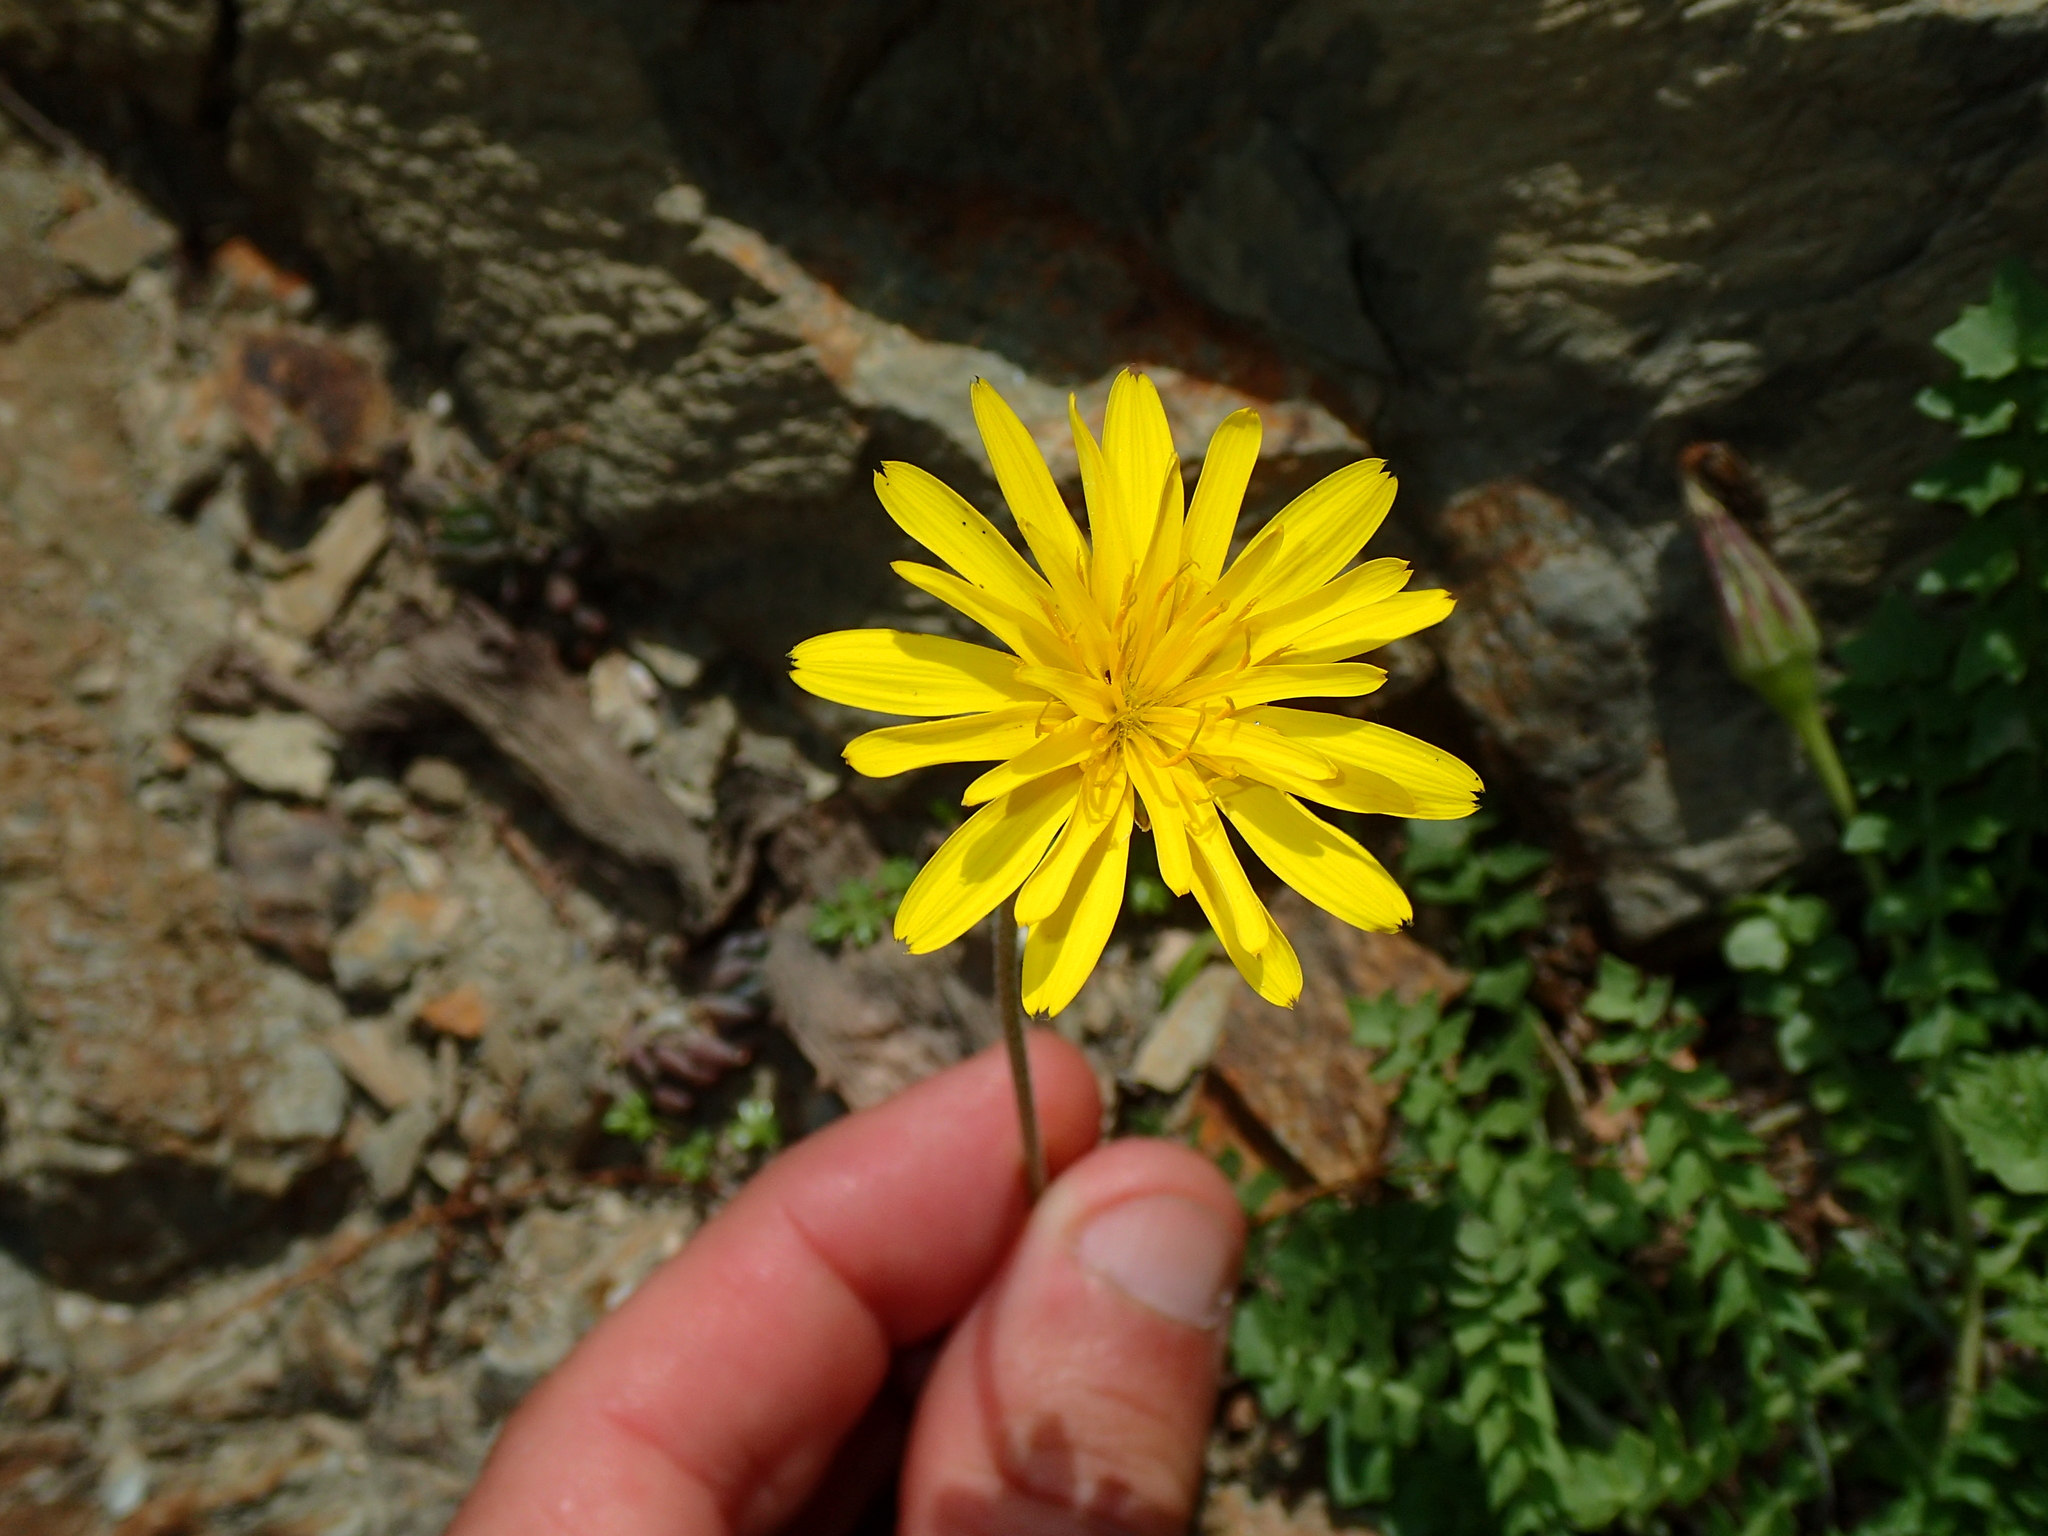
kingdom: Plantae
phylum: Tracheophyta
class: Magnoliopsida
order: Asterales
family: Asteraceae
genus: Hyoseris
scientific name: Hyoseris radiata
